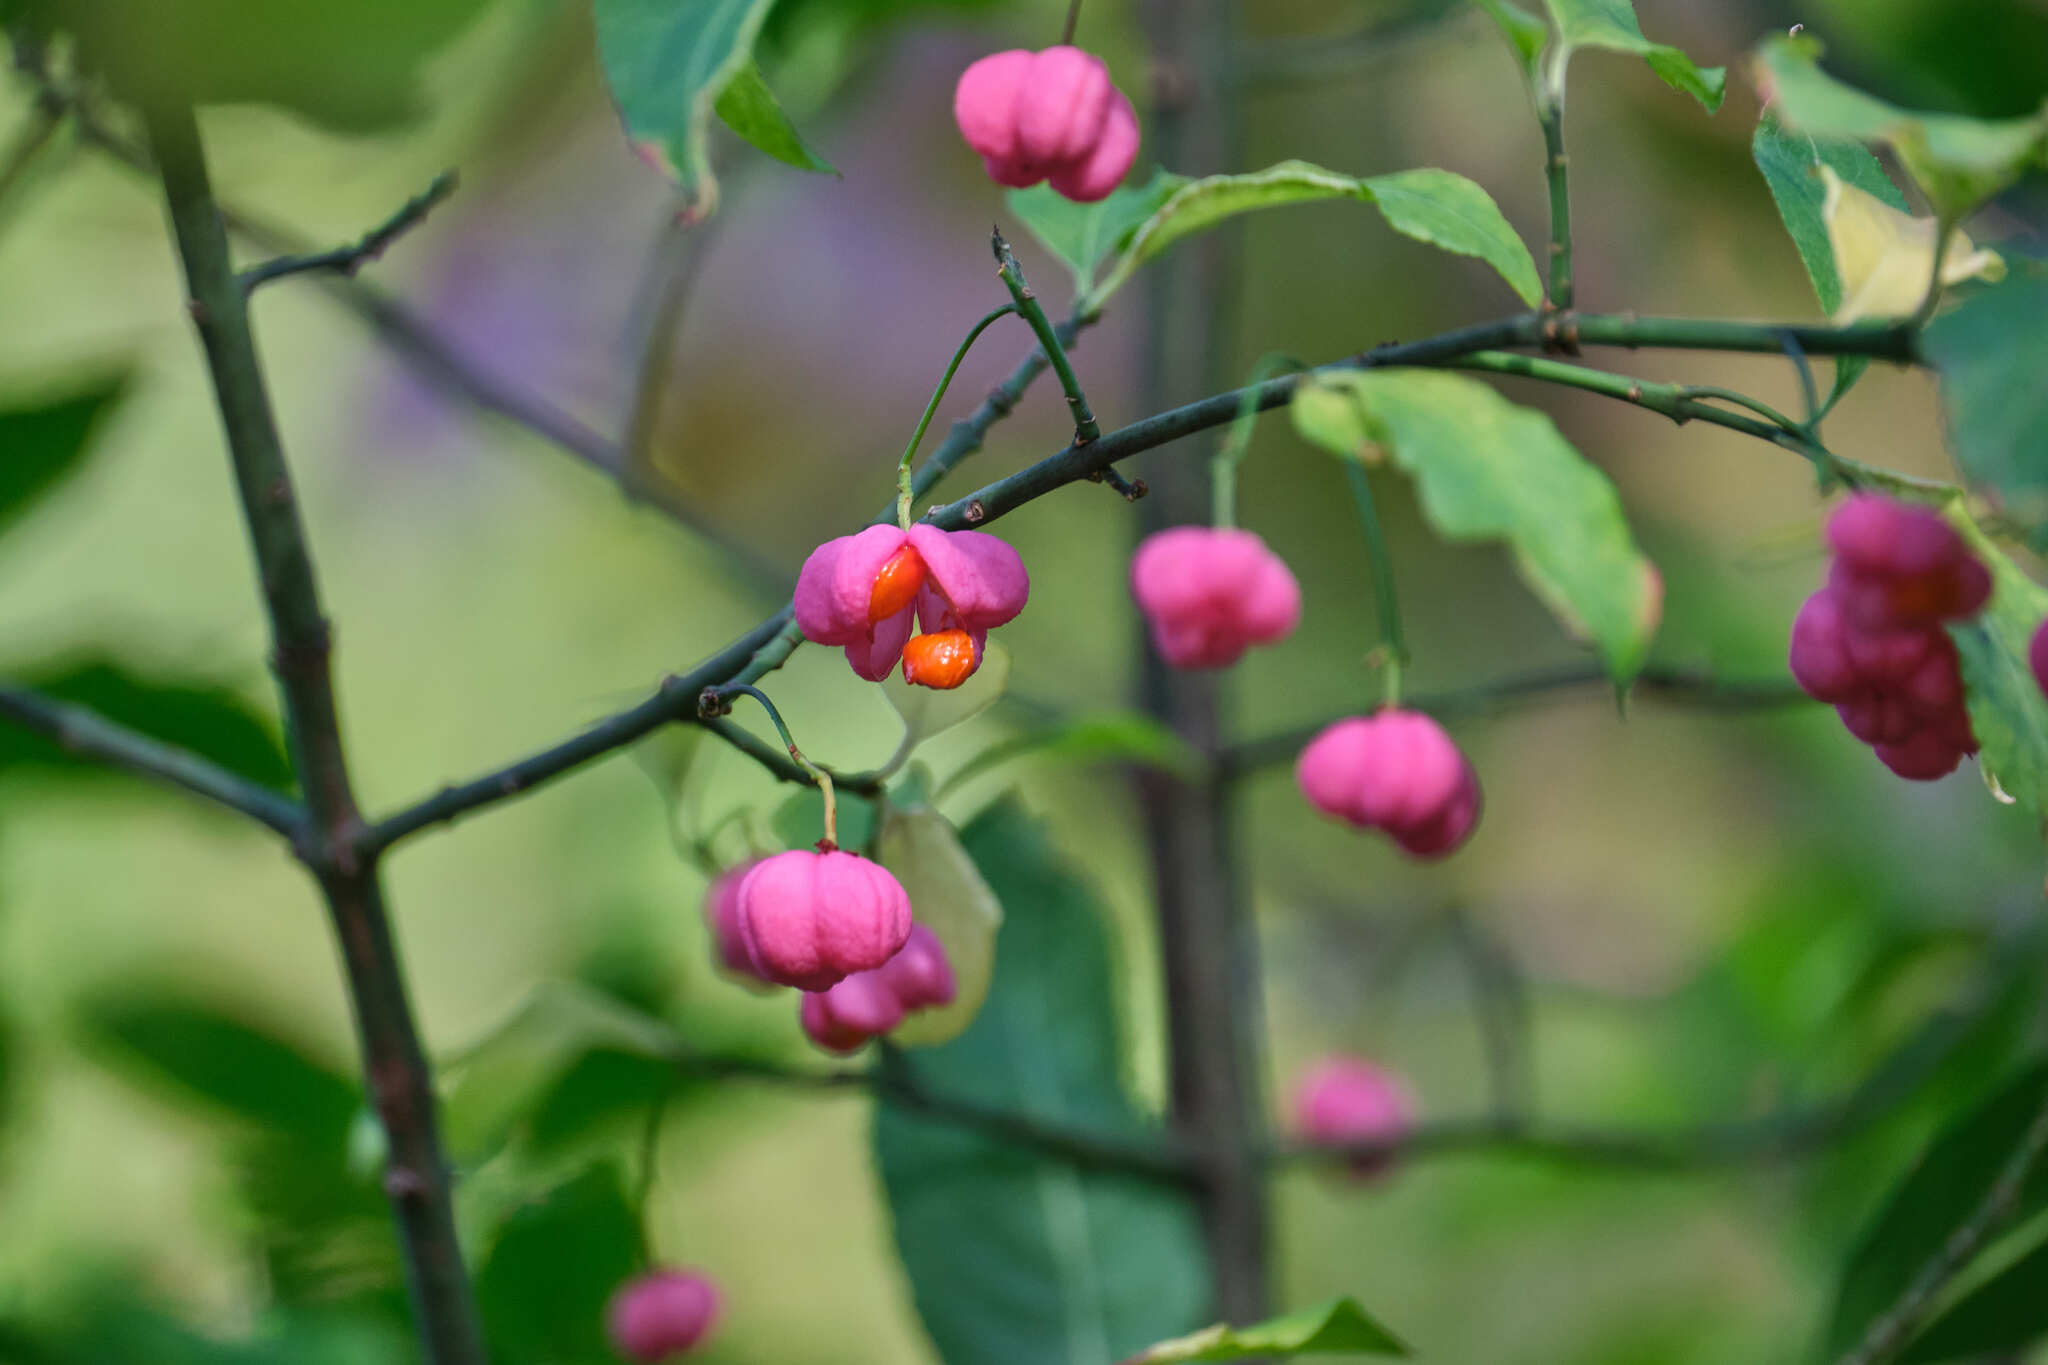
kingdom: Plantae
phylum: Tracheophyta
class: Magnoliopsida
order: Celastrales
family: Celastraceae
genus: Euonymus
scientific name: Euonymus europaeus
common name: Spindle
